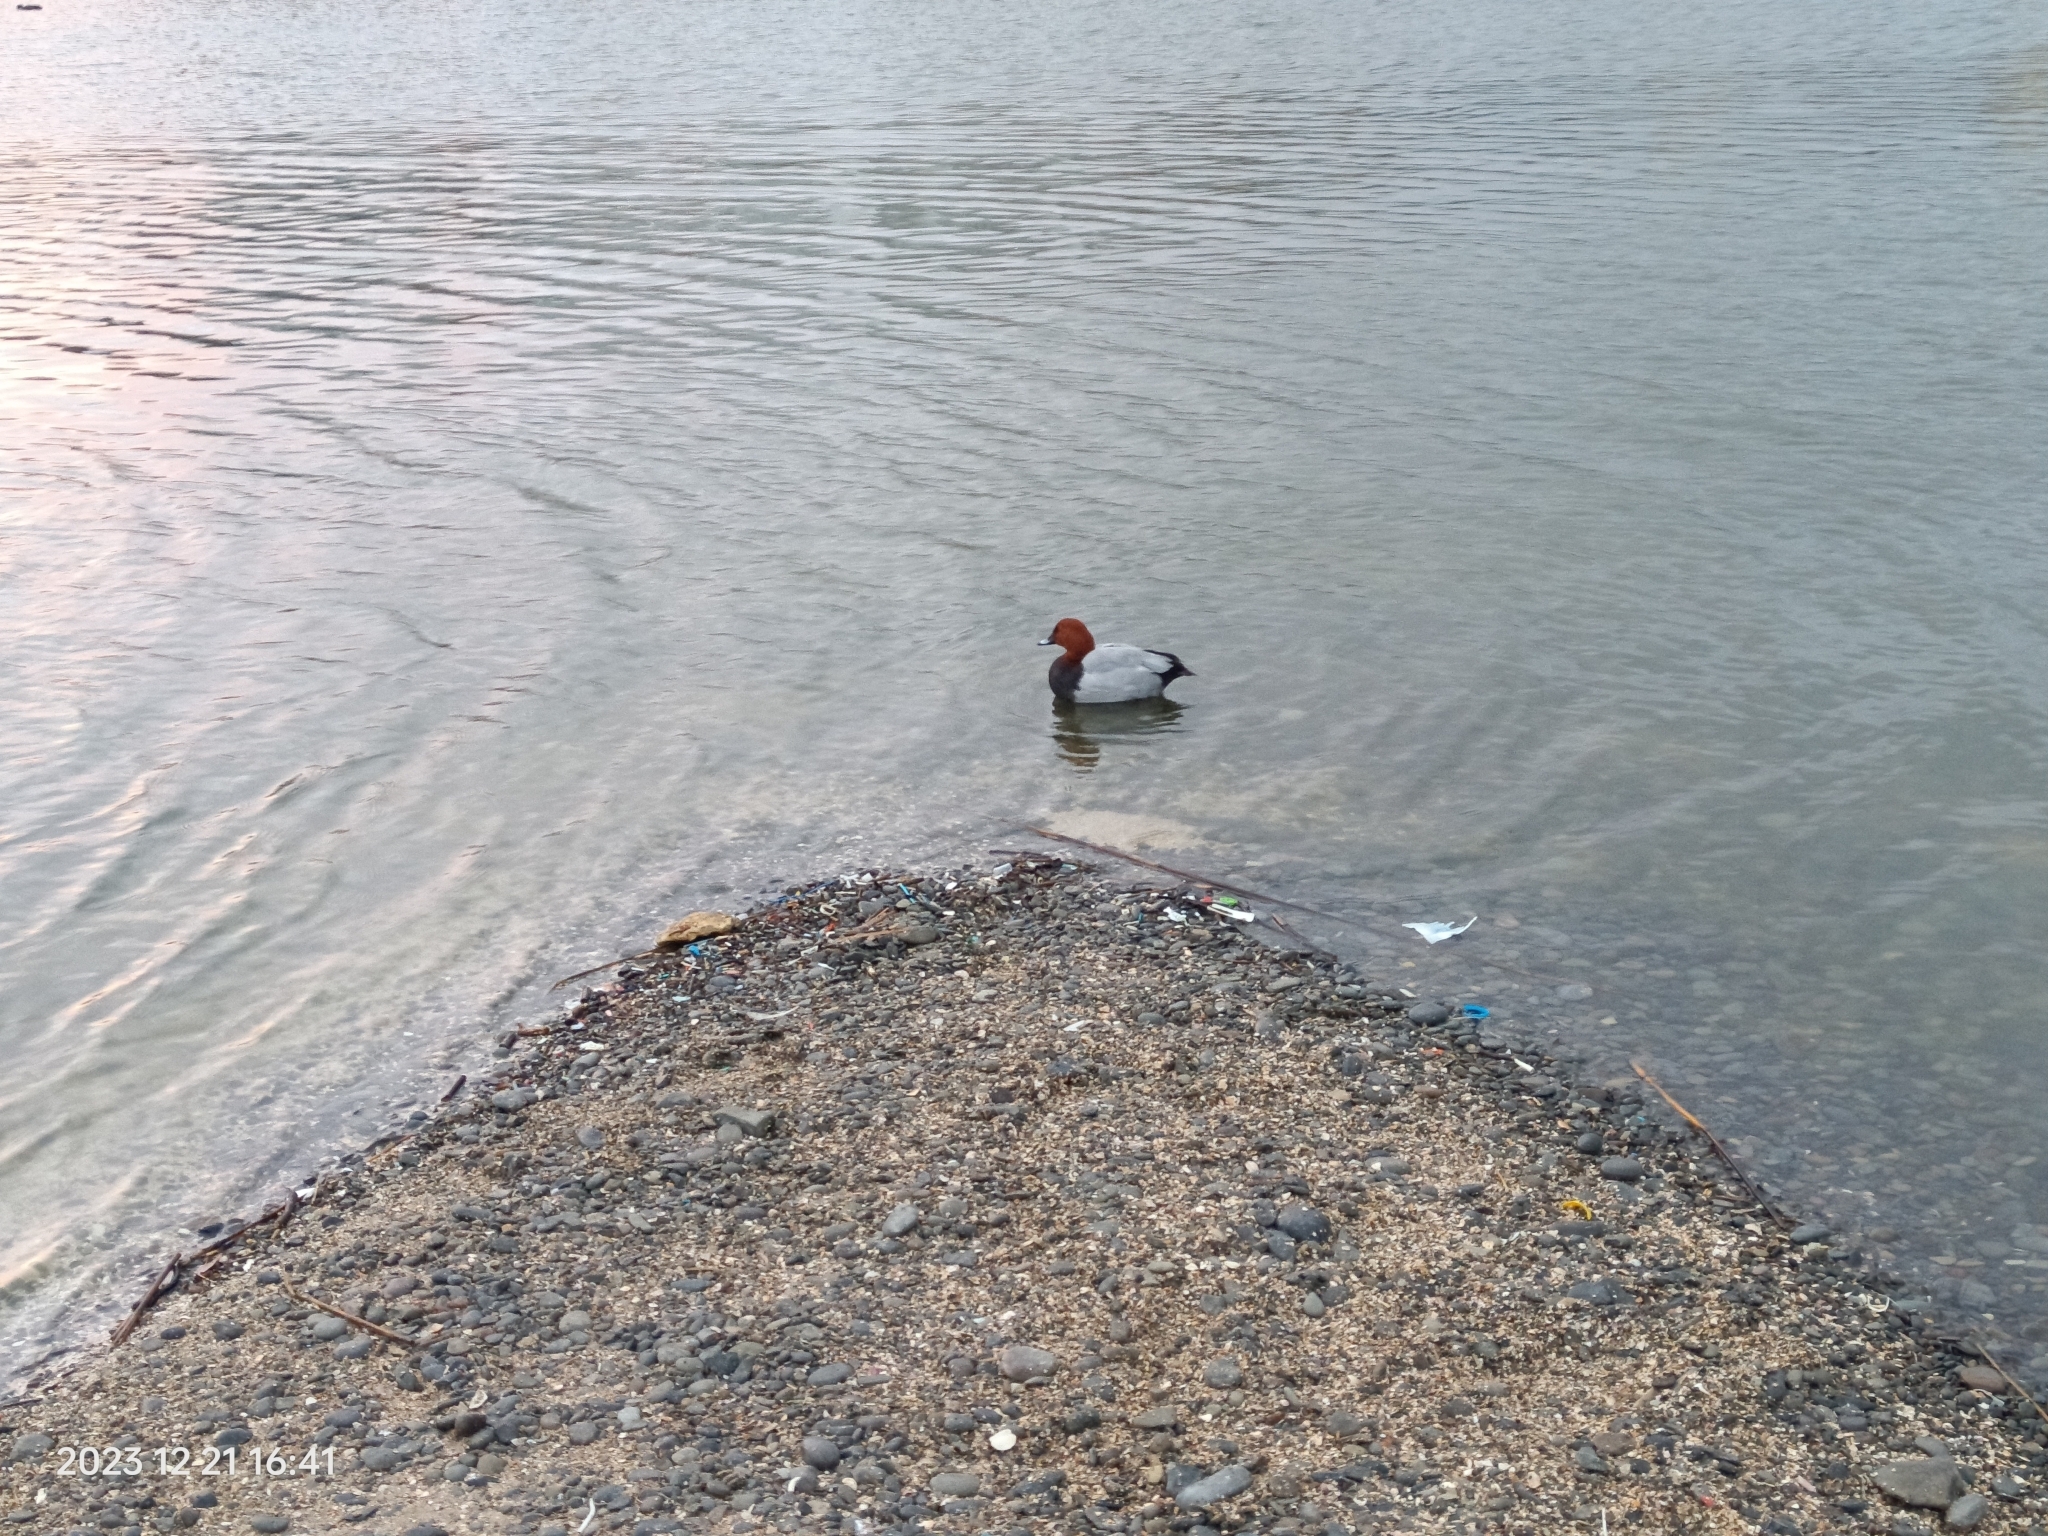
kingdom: Animalia
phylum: Chordata
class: Aves
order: Anseriformes
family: Anatidae
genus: Aythya
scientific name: Aythya ferina
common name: Common pochard
